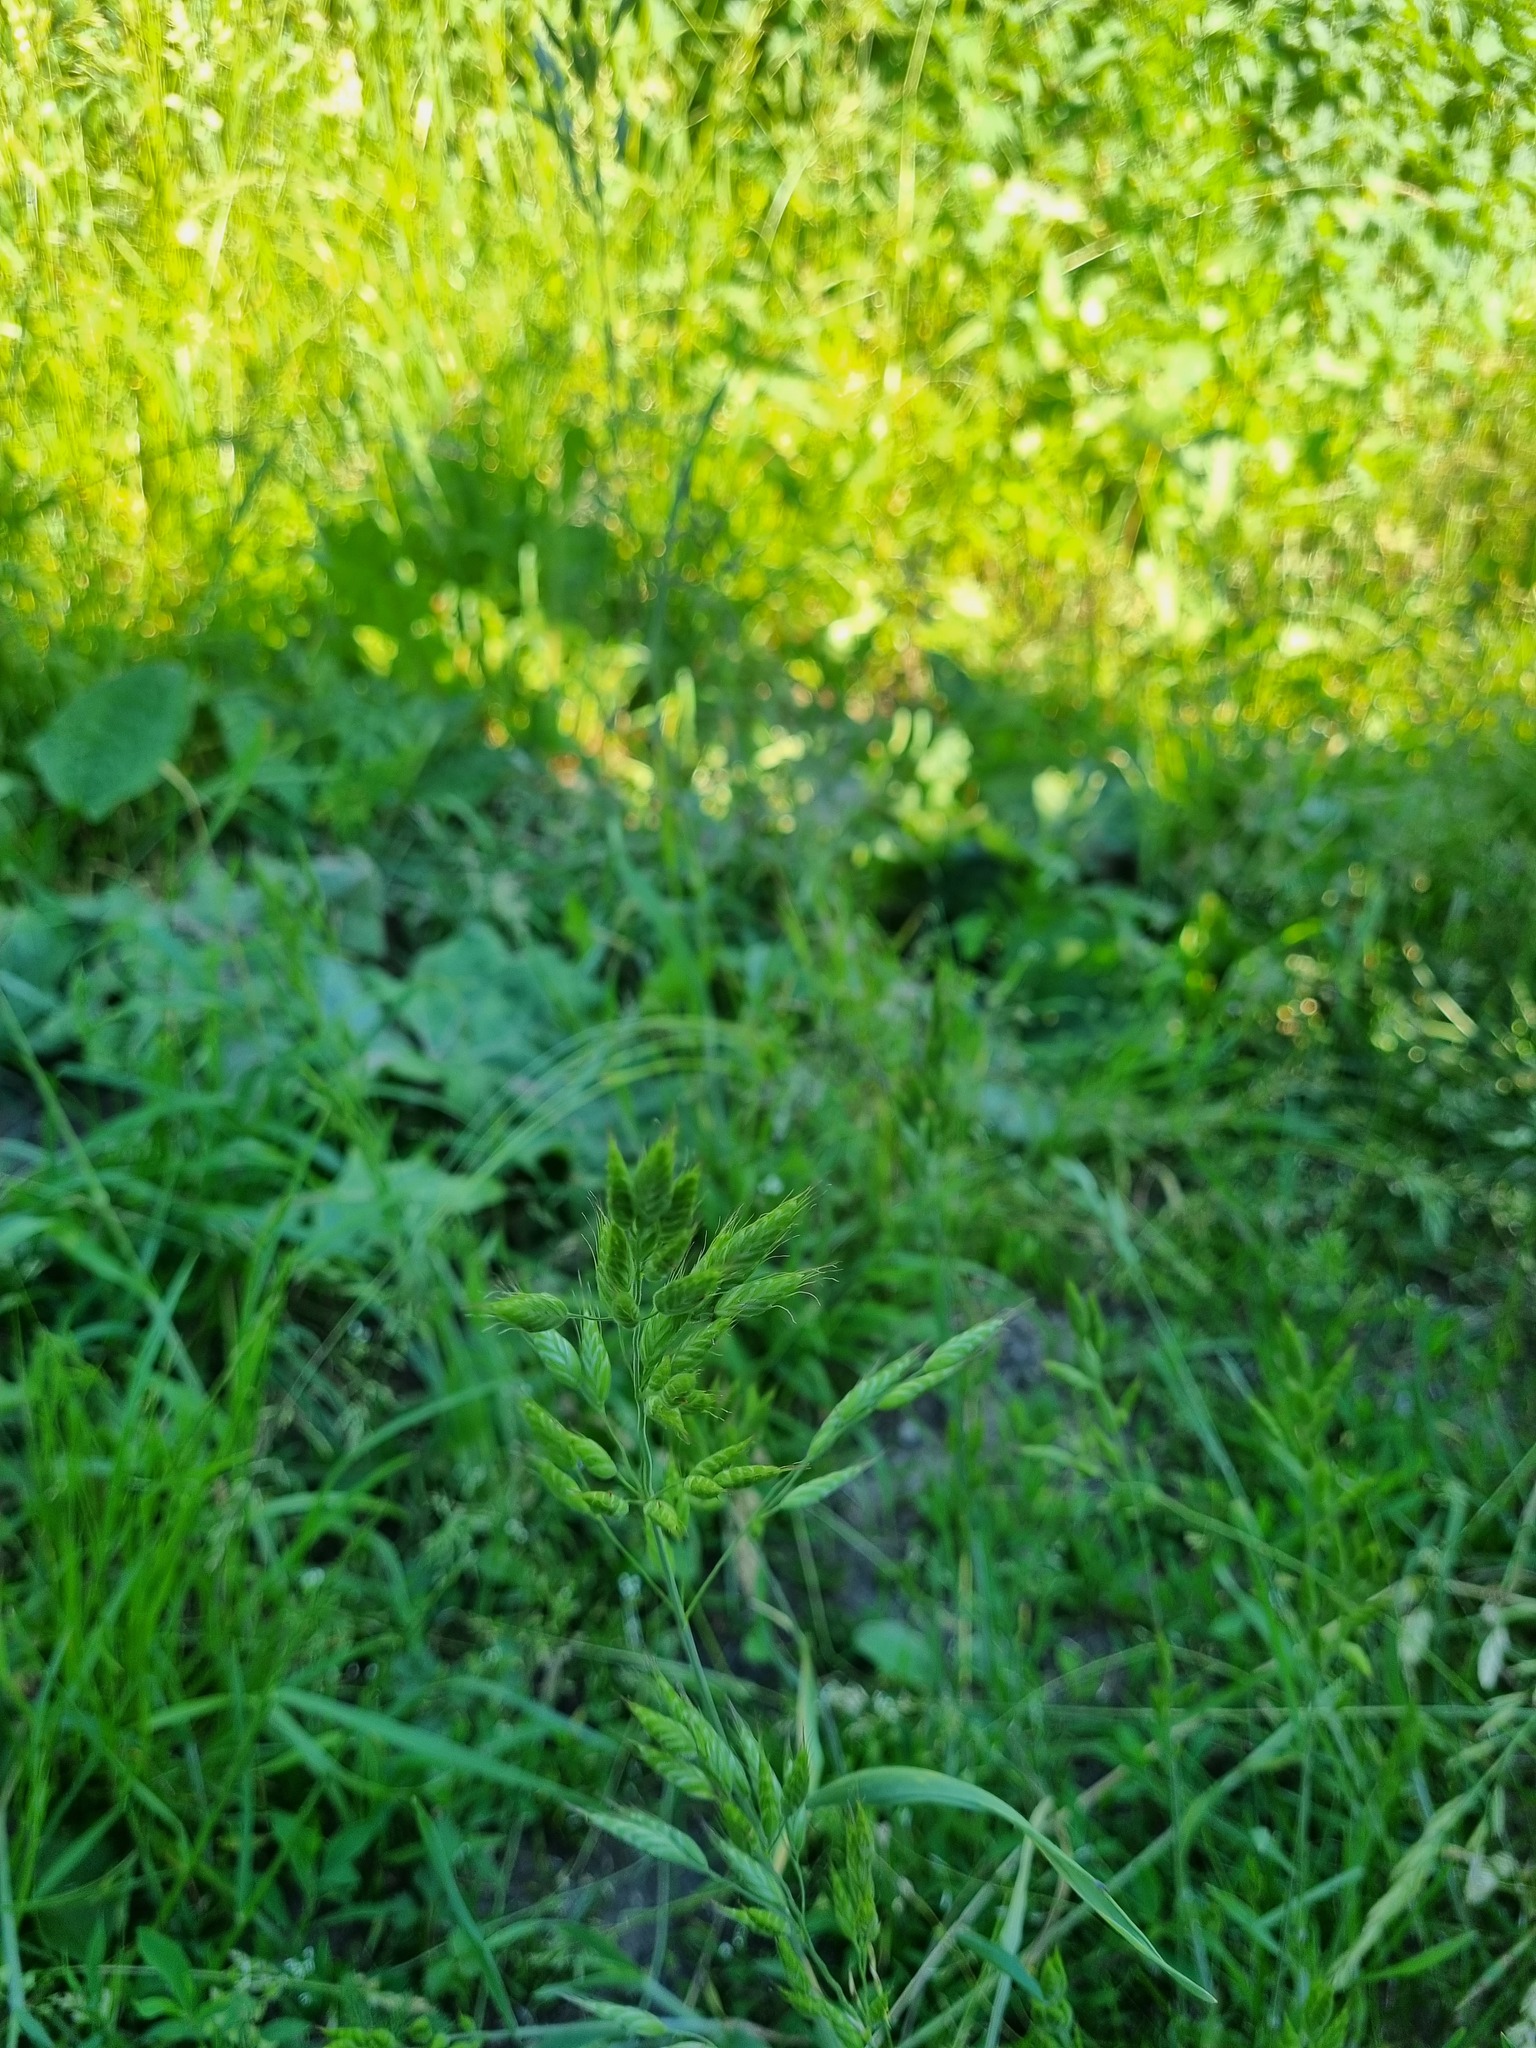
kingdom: Plantae
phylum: Tracheophyta
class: Liliopsida
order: Poales
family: Poaceae
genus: Bromus
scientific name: Bromus hordeaceus
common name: Soft brome
